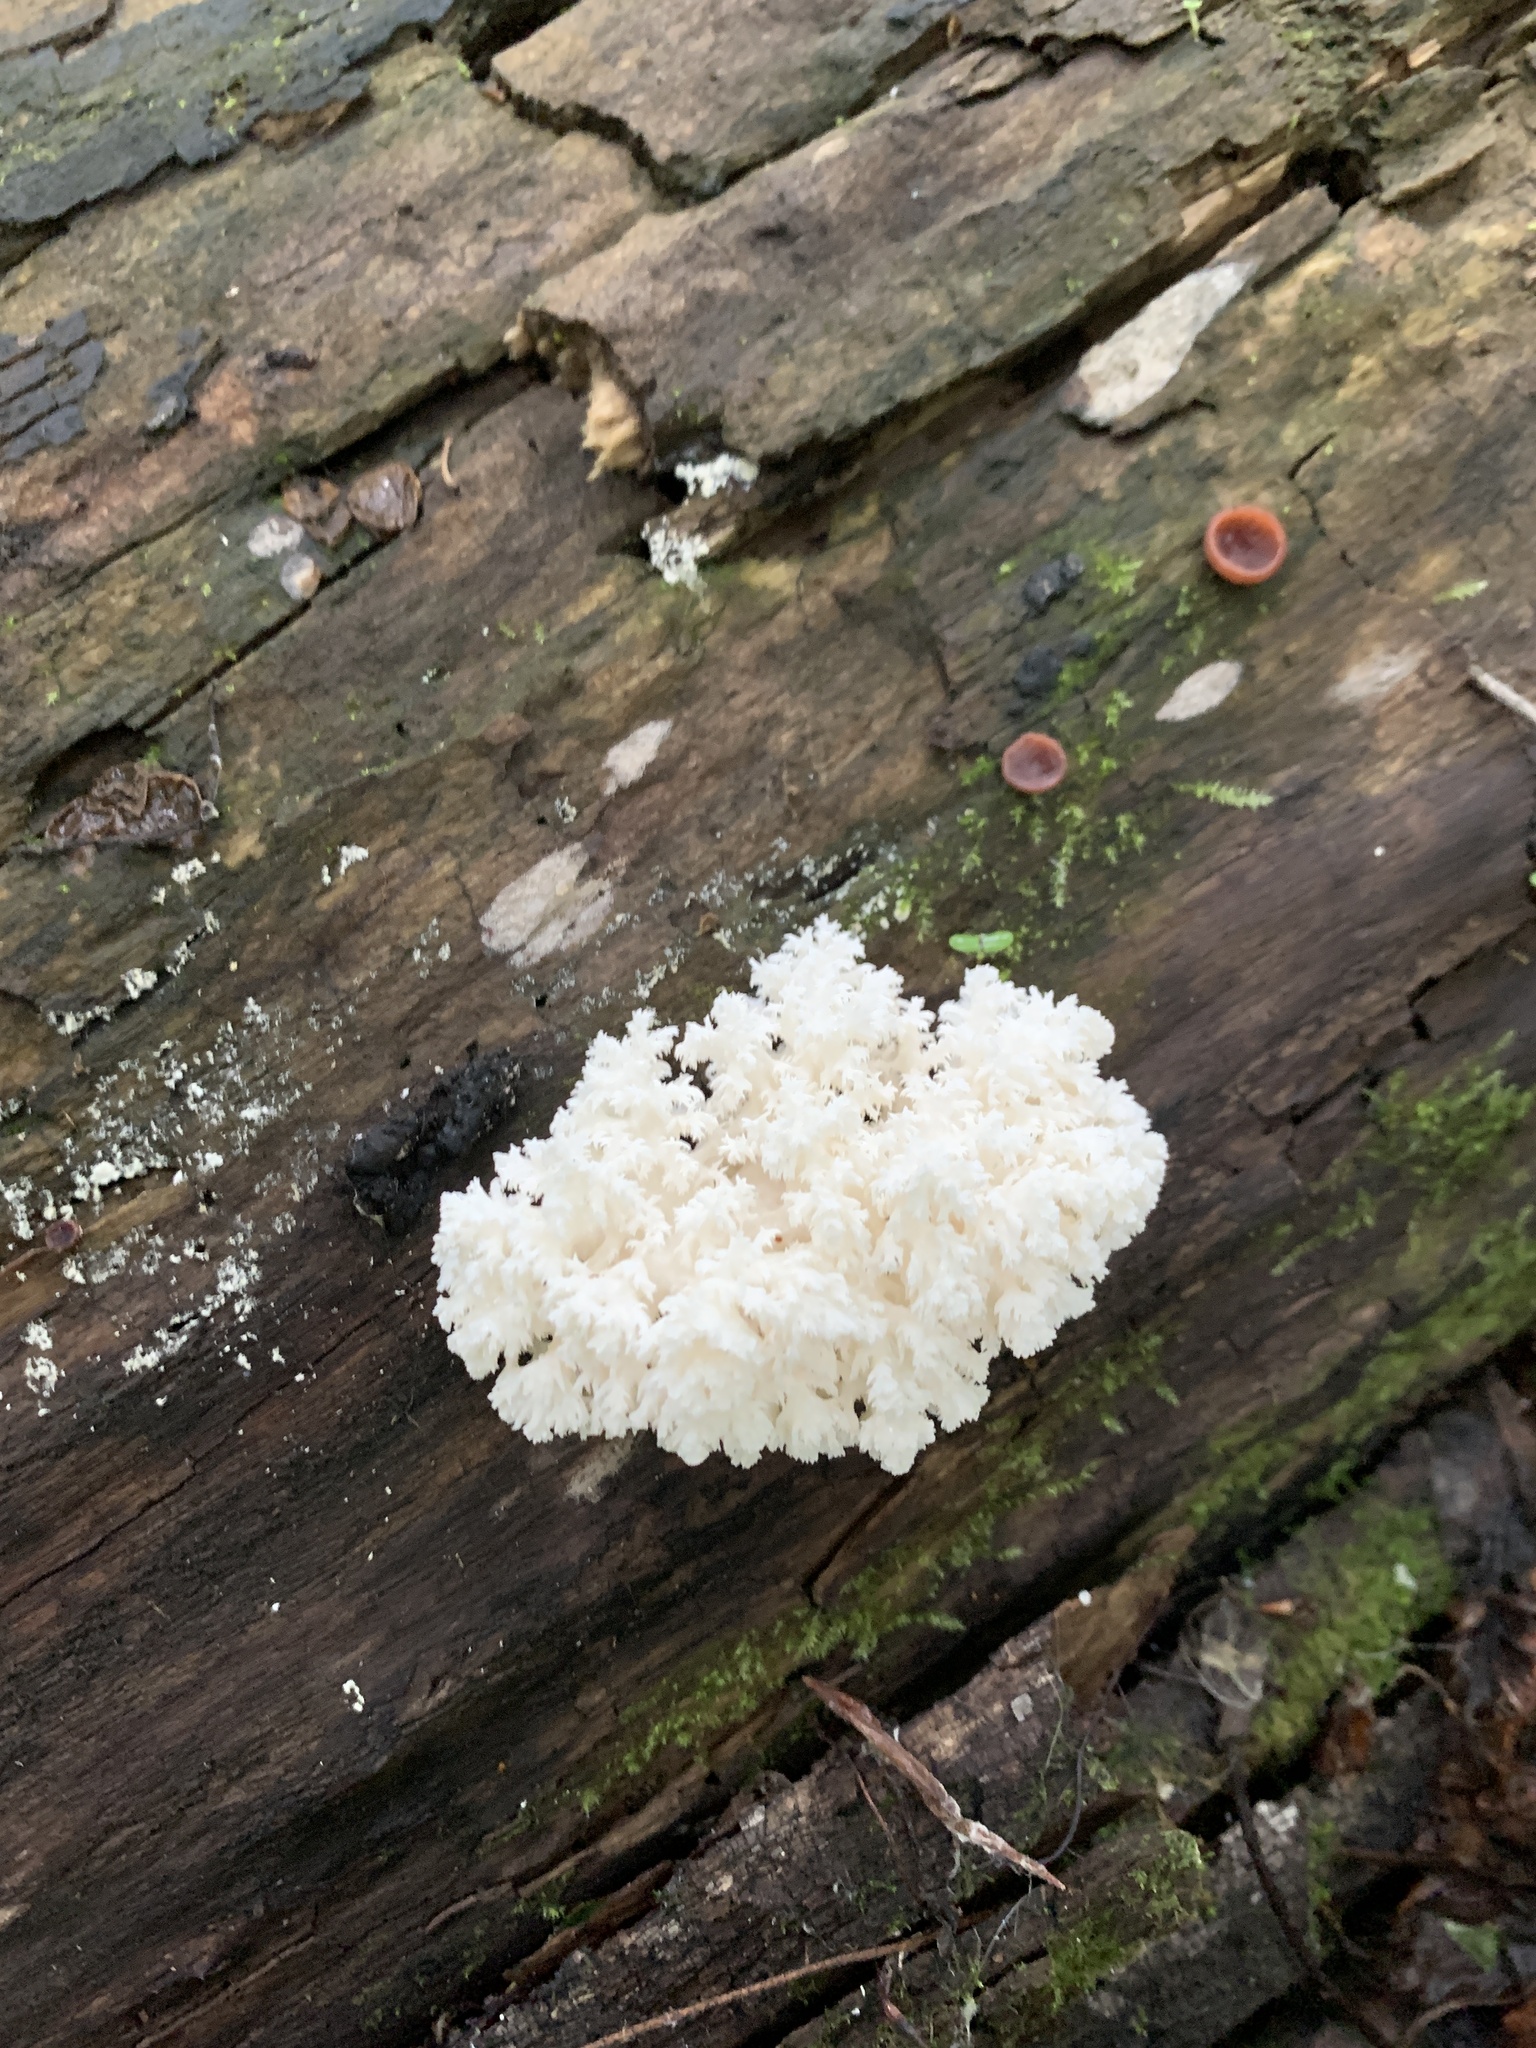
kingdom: Fungi
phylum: Basidiomycota
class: Agaricomycetes
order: Russulales
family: Hericiaceae
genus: Hericium
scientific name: Hericium coralloides
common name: Coral tooth
